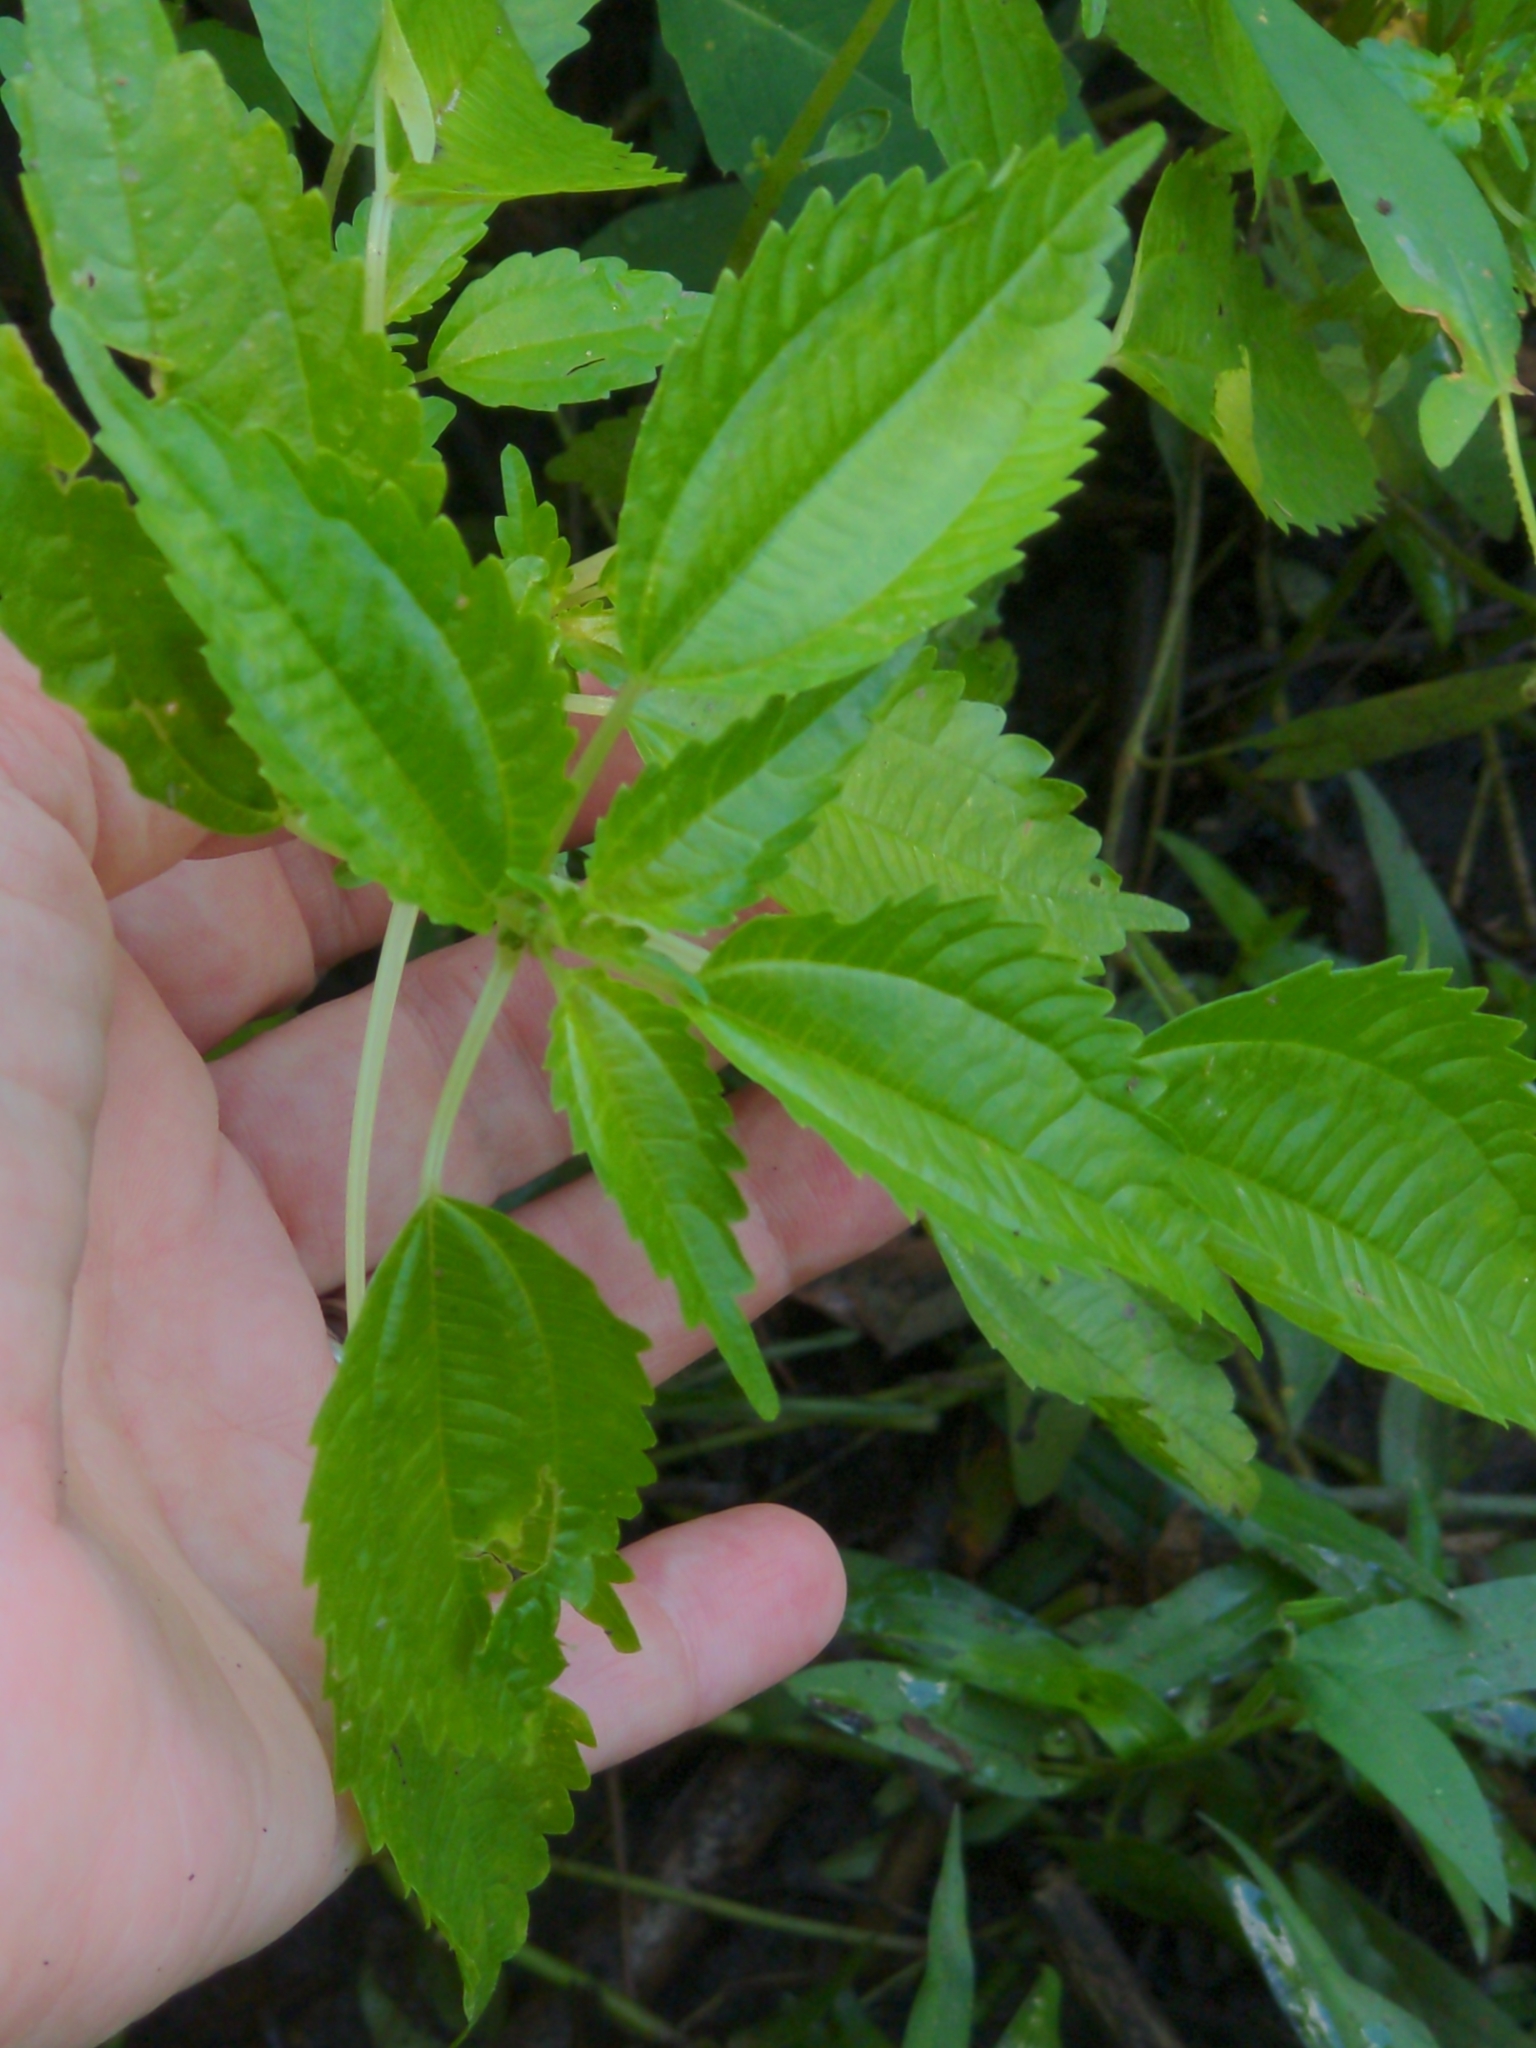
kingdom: Plantae
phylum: Tracheophyta
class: Magnoliopsida
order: Rosales
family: Urticaceae
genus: Pilea
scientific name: Pilea pumila
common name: Clearweed
